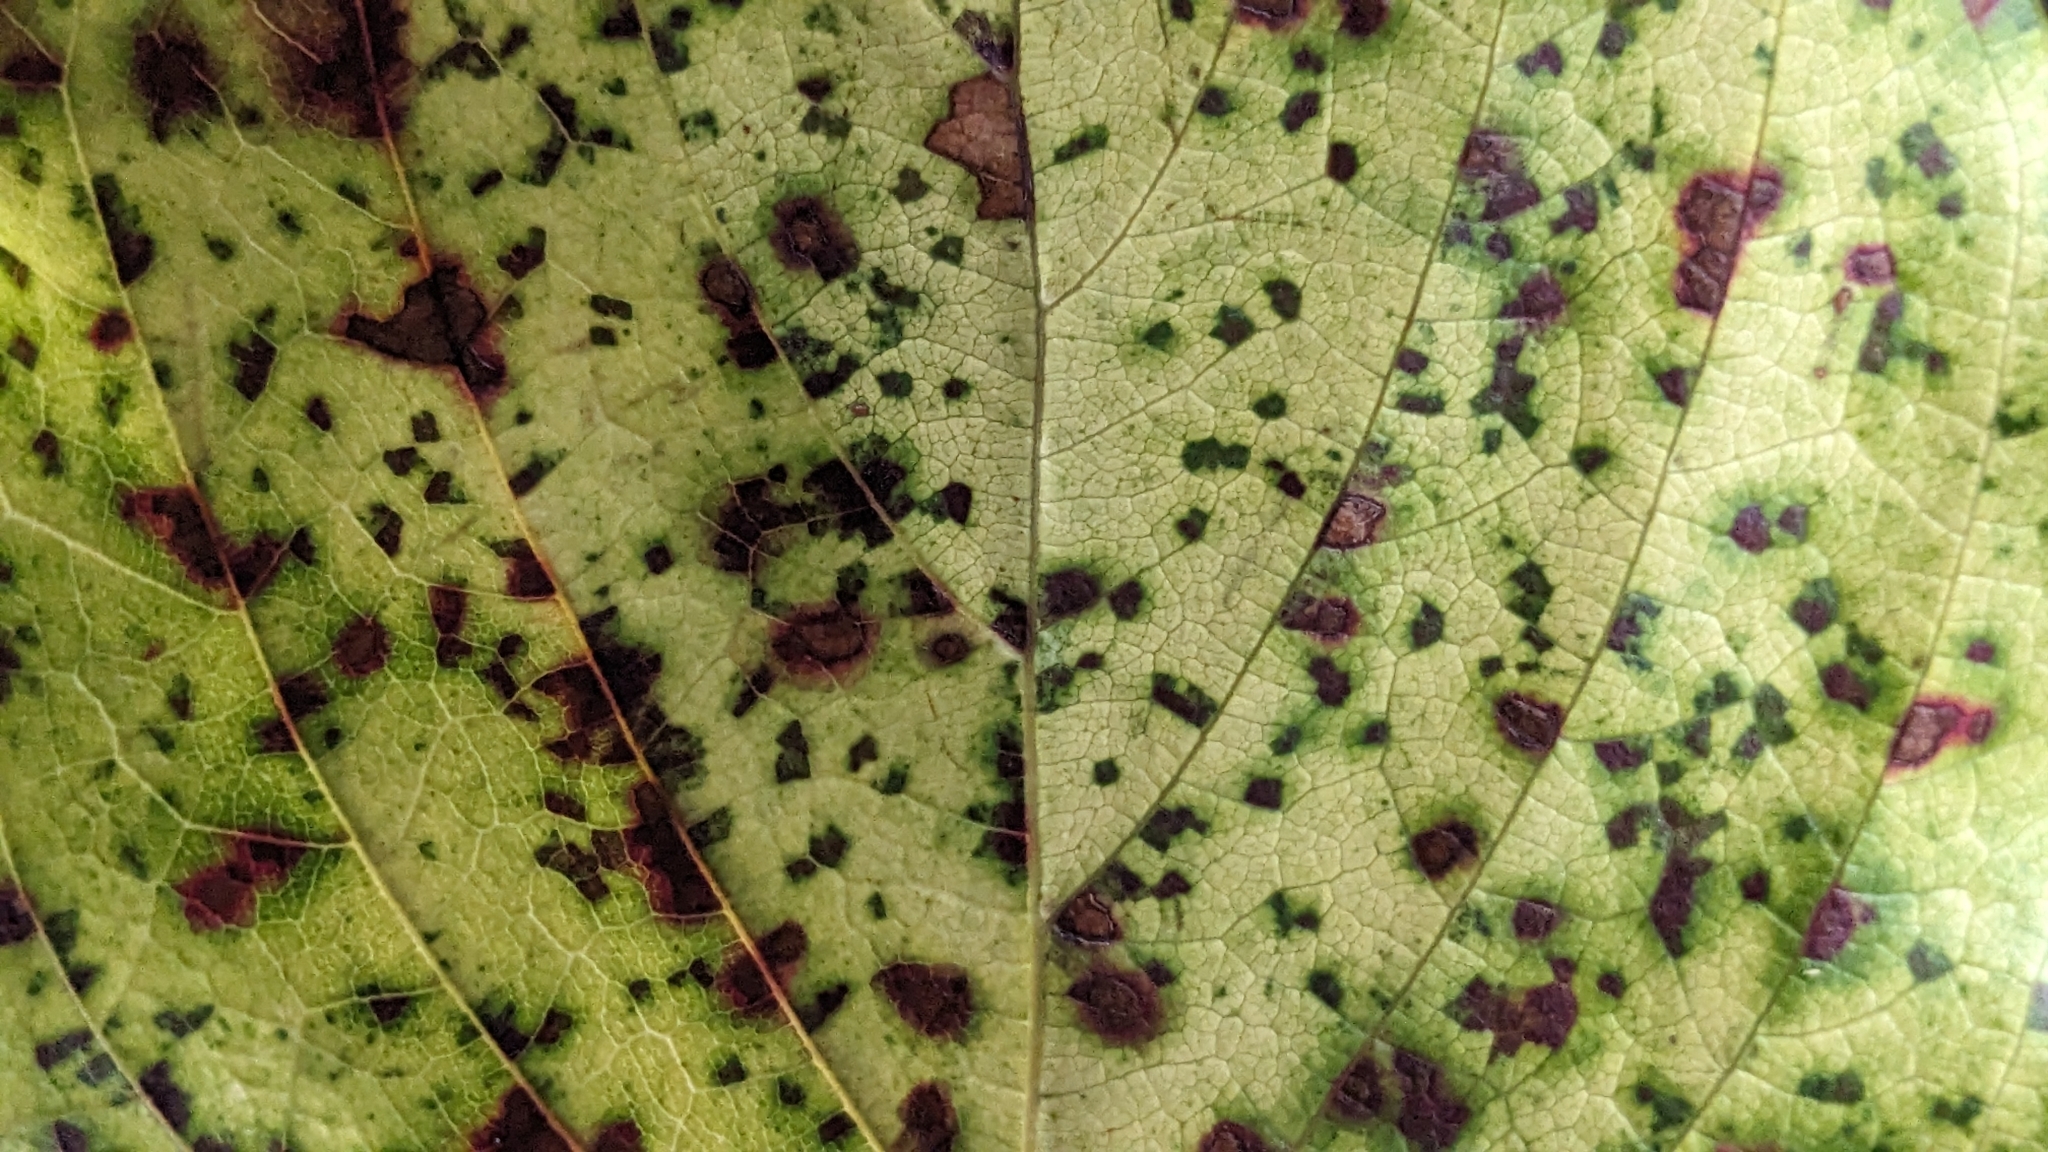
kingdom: Plantae
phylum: Tracheophyta
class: Magnoliopsida
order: Gentianales
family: Rubiaceae
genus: Adina
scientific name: Adina racemosa
